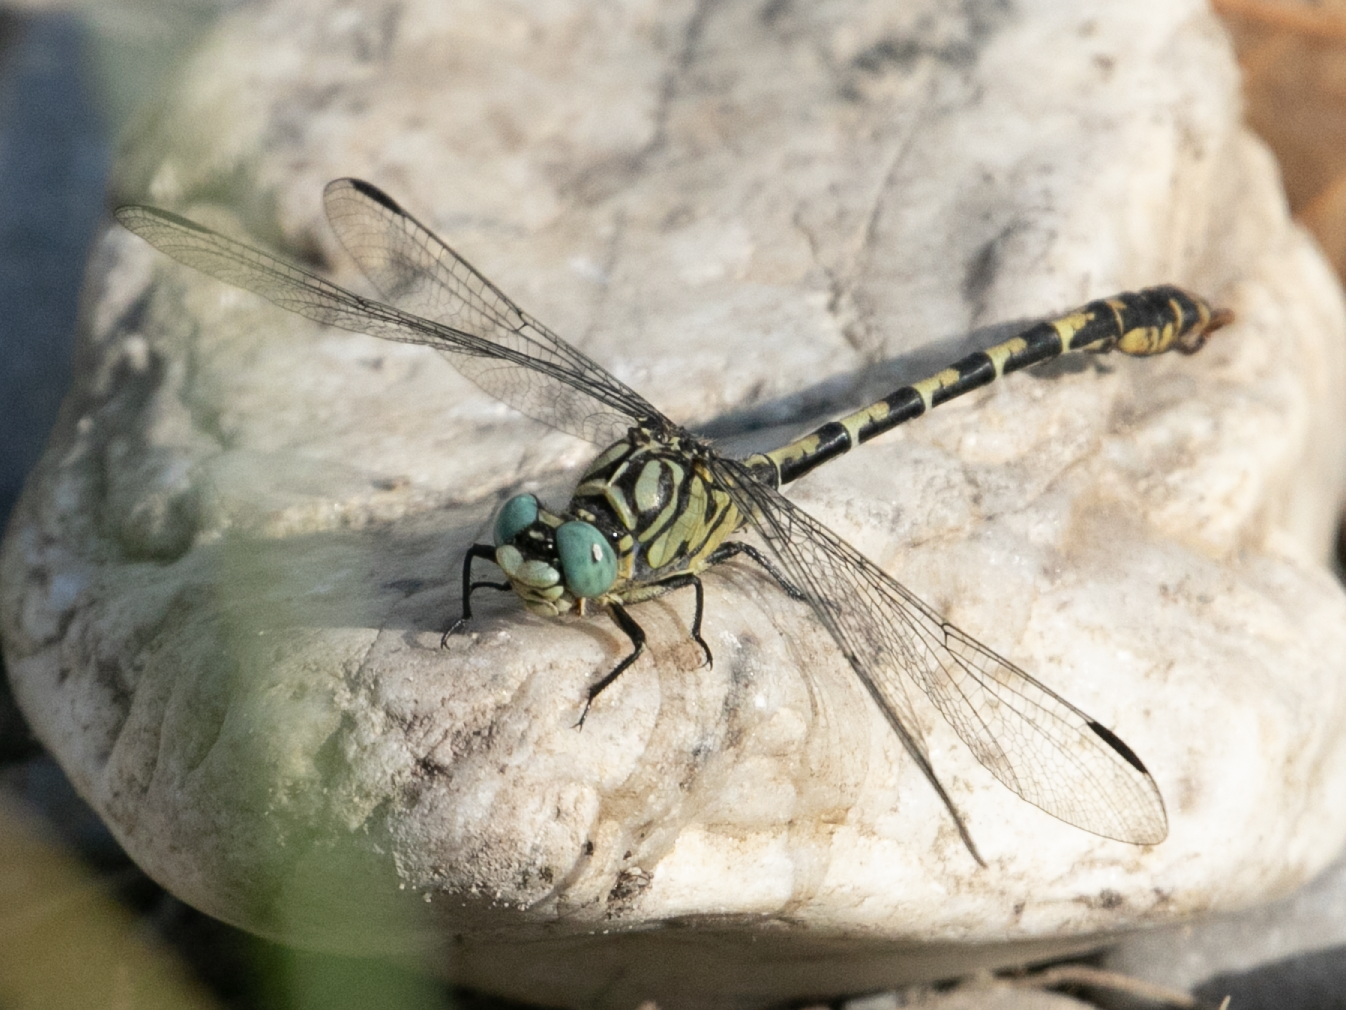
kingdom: Animalia
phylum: Arthropoda
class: Insecta
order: Odonata
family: Gomphidae
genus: Onychogomphus
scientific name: Onychogomphus forcipatus
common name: Small pincertail
